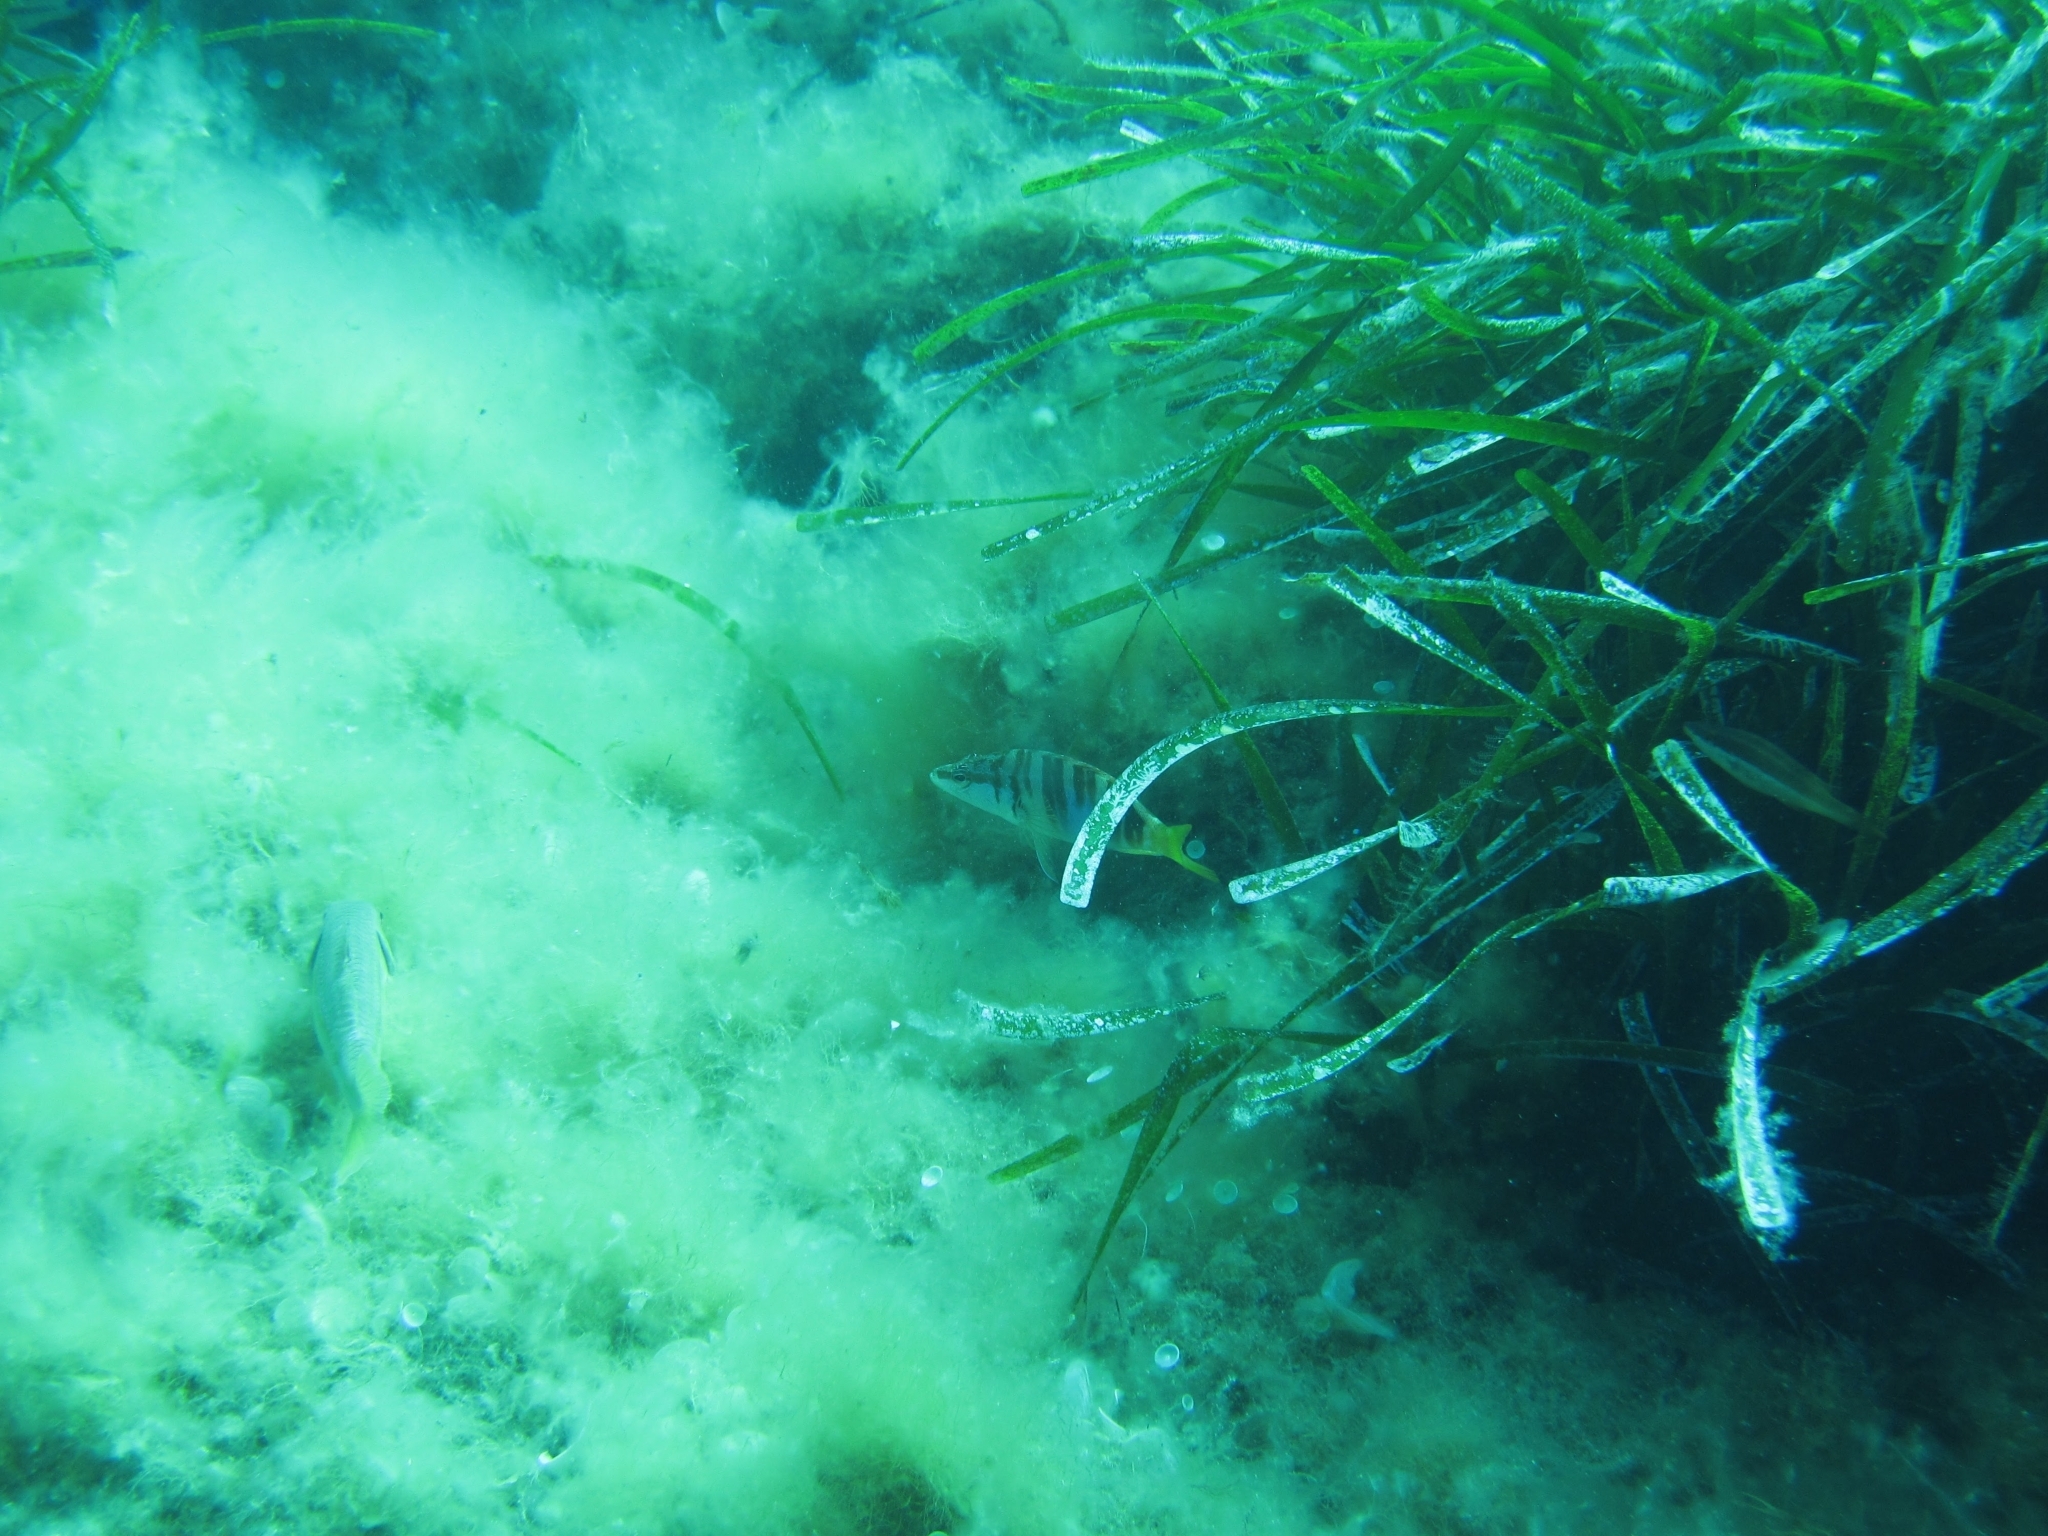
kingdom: Animalia
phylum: Chordata
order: Perciformes
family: Serranidae
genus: Serranus
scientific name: Serranus scriba
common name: Painted comber
